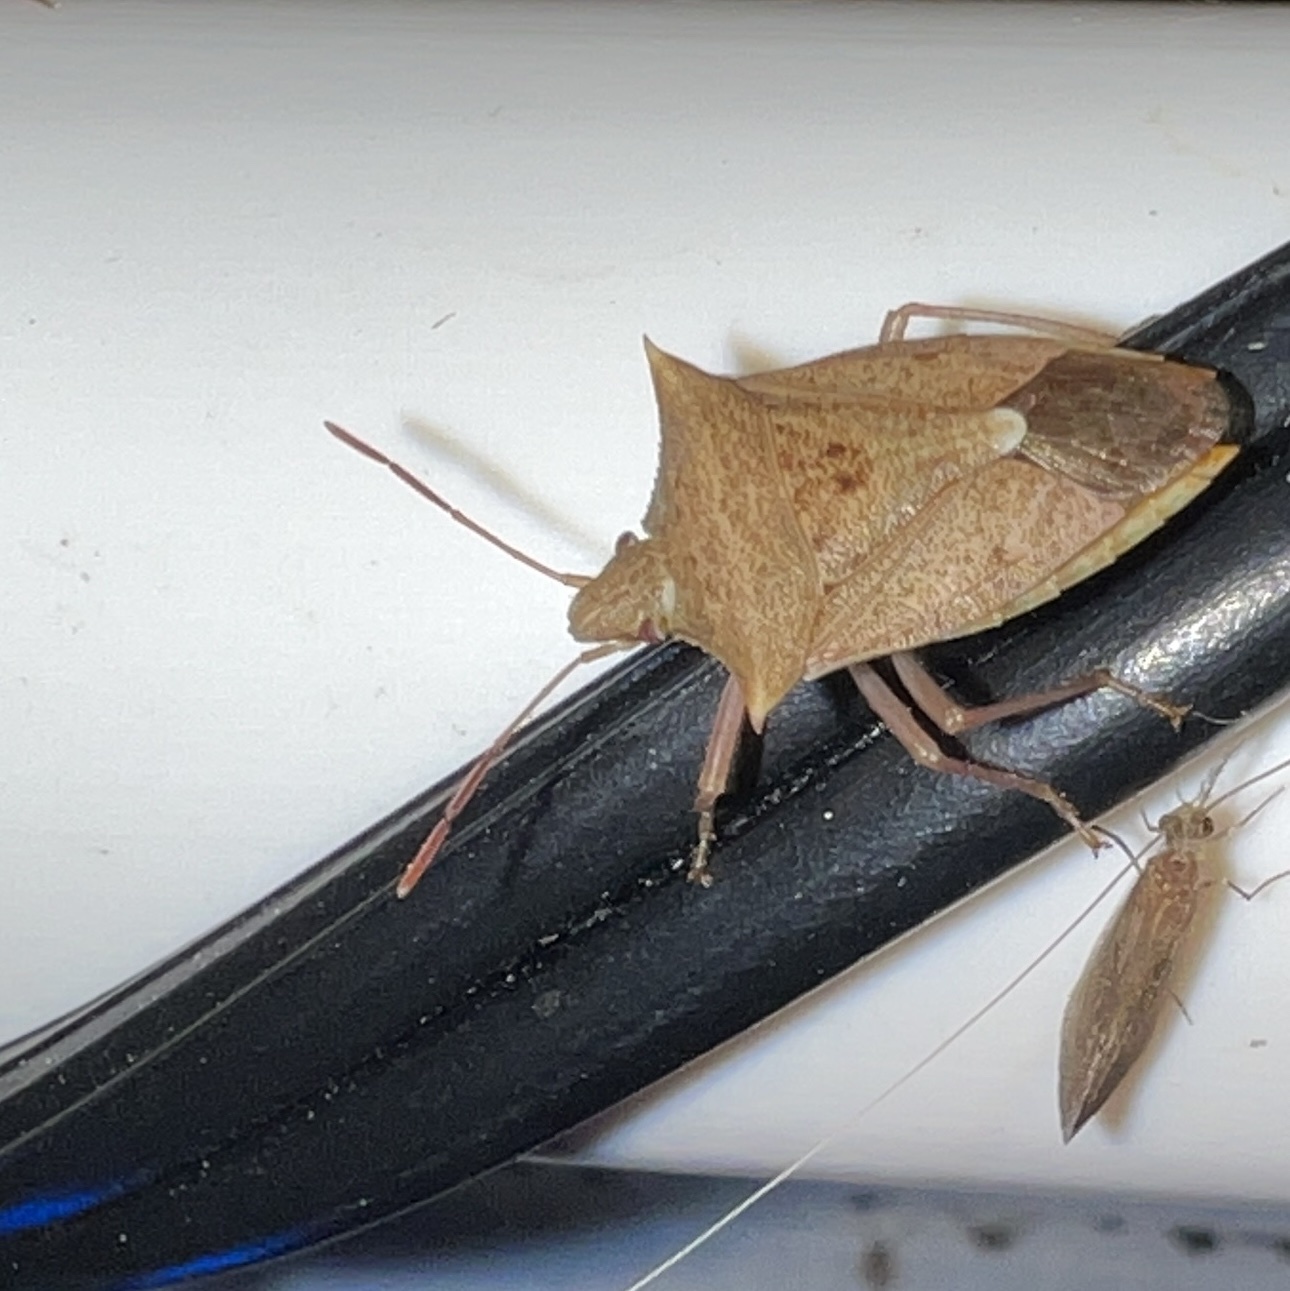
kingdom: Animalia
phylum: Arthropoda
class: Insecta
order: Hemiptera
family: Pentatomidae
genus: Euschistus
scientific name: Euschistus ictericus
